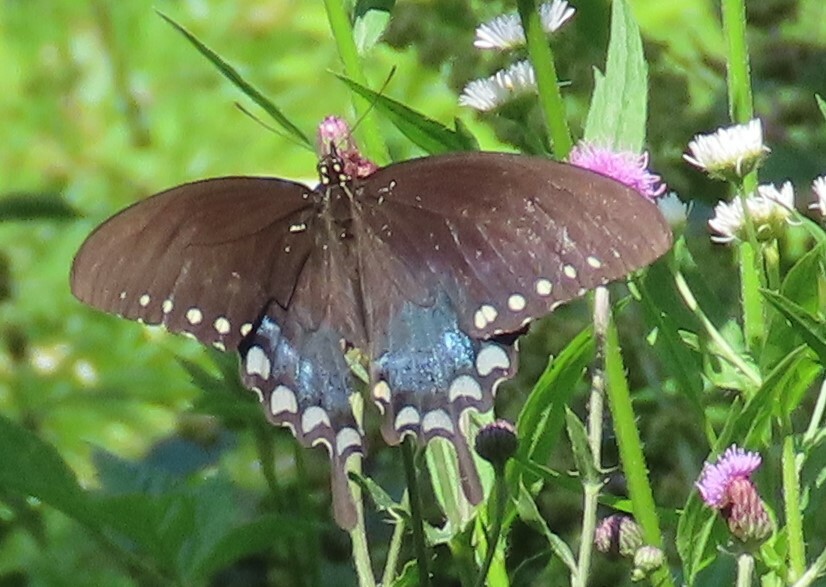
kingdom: Animalia
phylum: Arthropoda
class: Insecta
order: Lepidoptera
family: Papilionidae
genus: Papilio
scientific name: Papilio troilus
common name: Spicebush swallowtail
